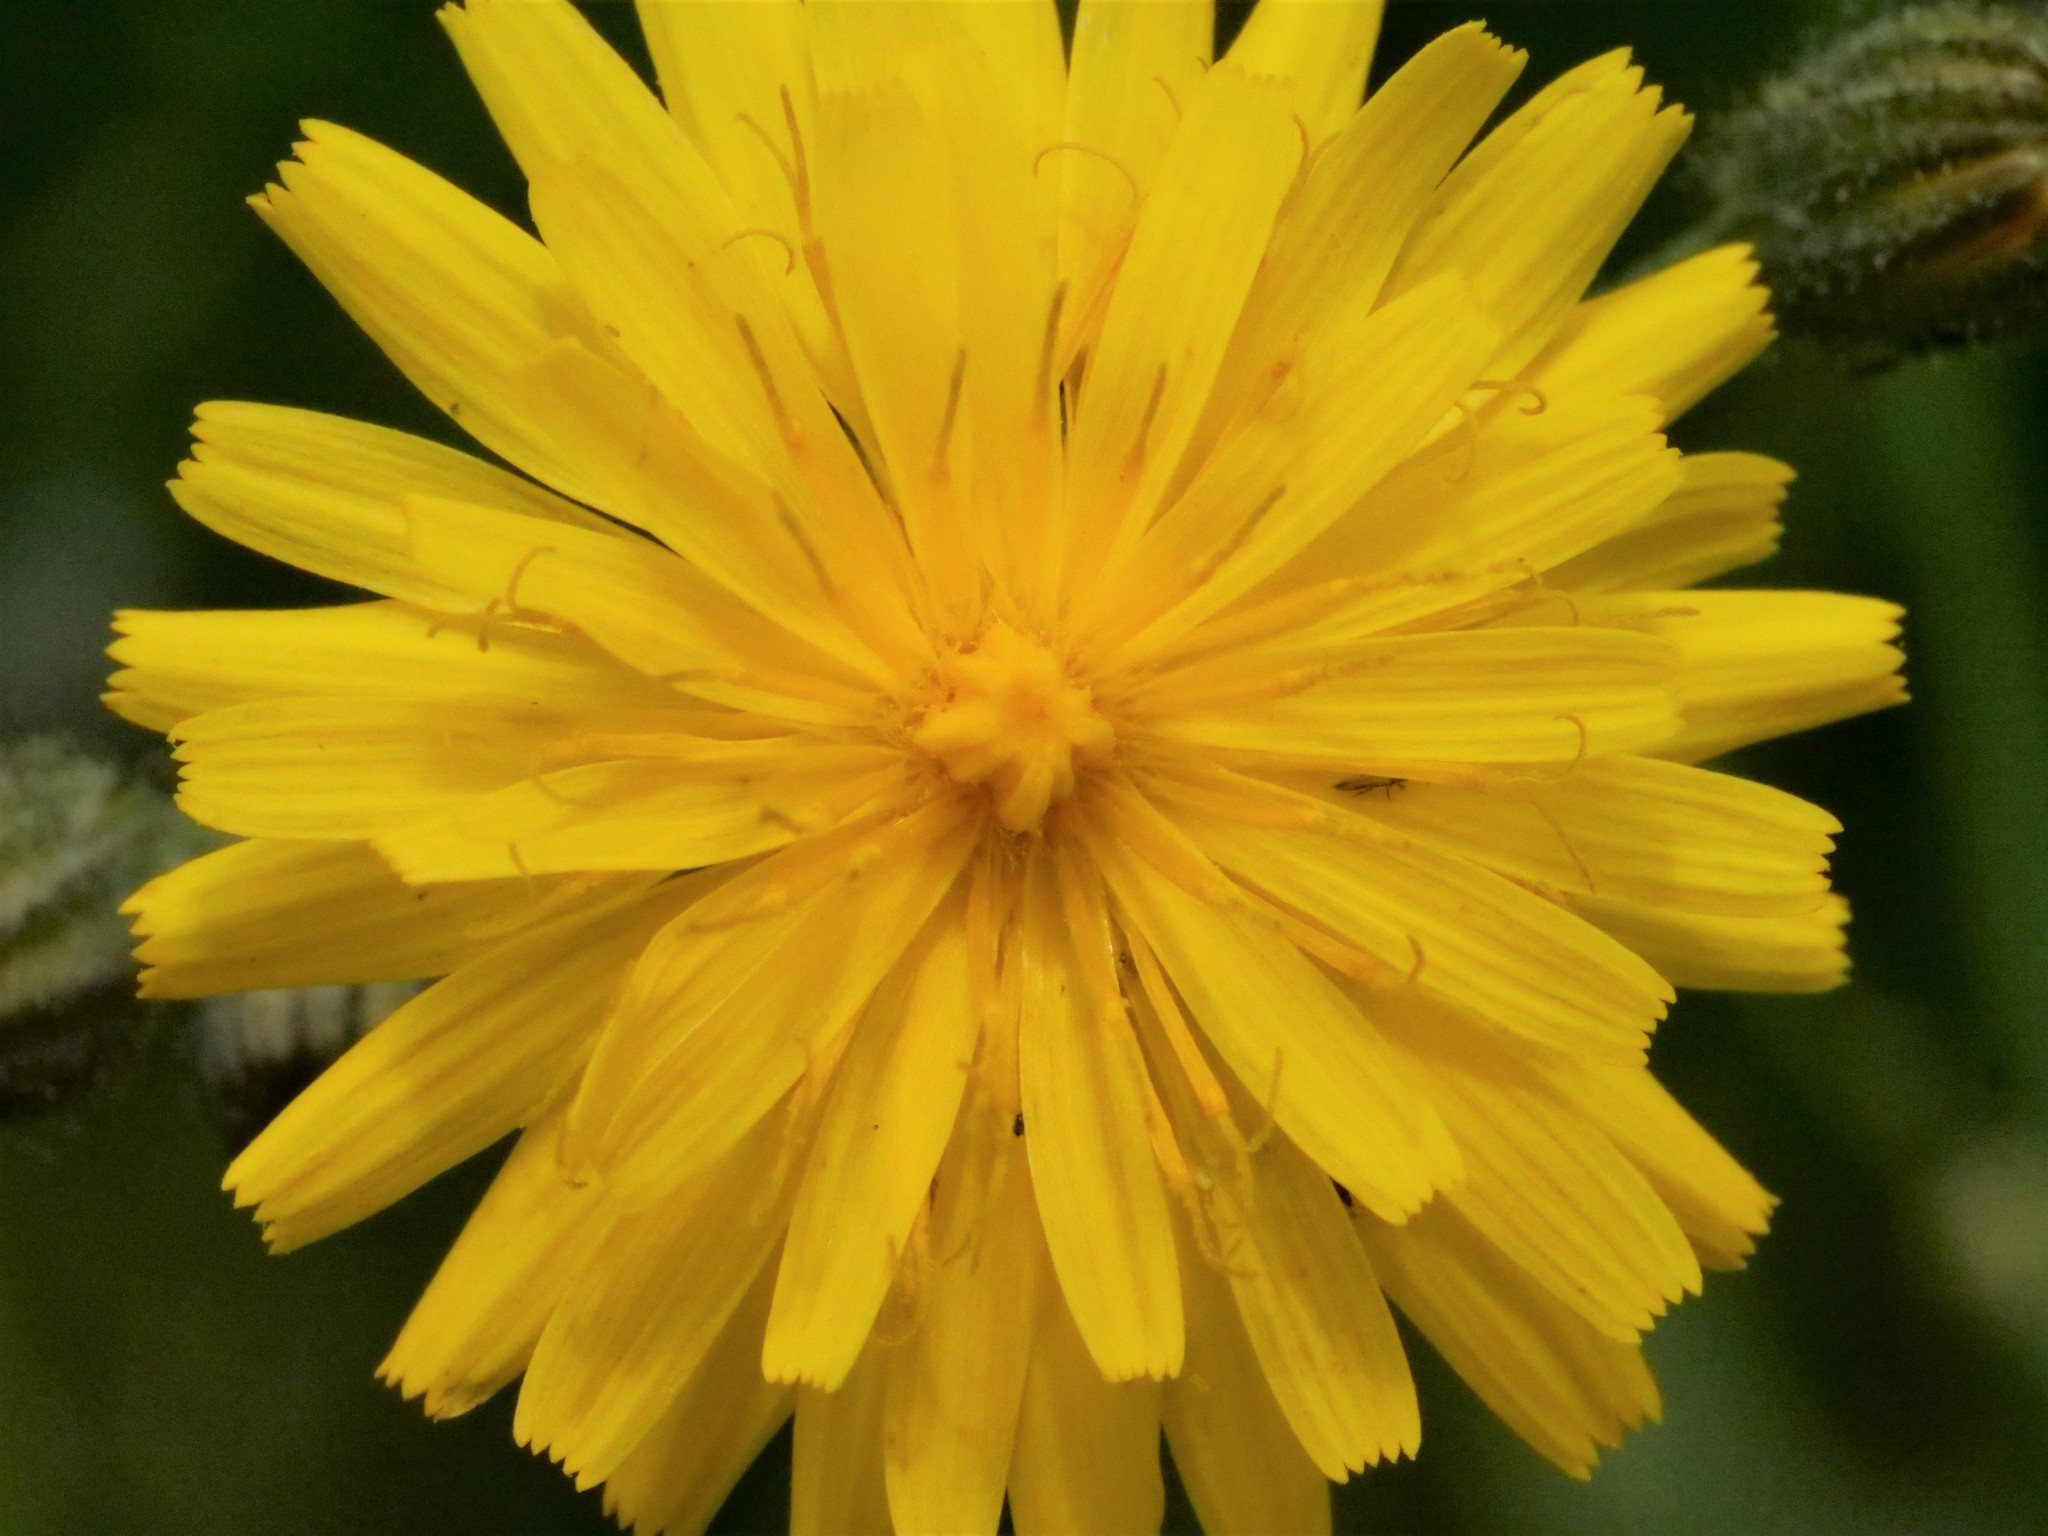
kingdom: Plantae
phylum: Tracheophyta
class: Magnoliopsida
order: Asterales
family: Asteraceae
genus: Crepis
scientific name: Crepis capillaris
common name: Smooth hawksbeard
